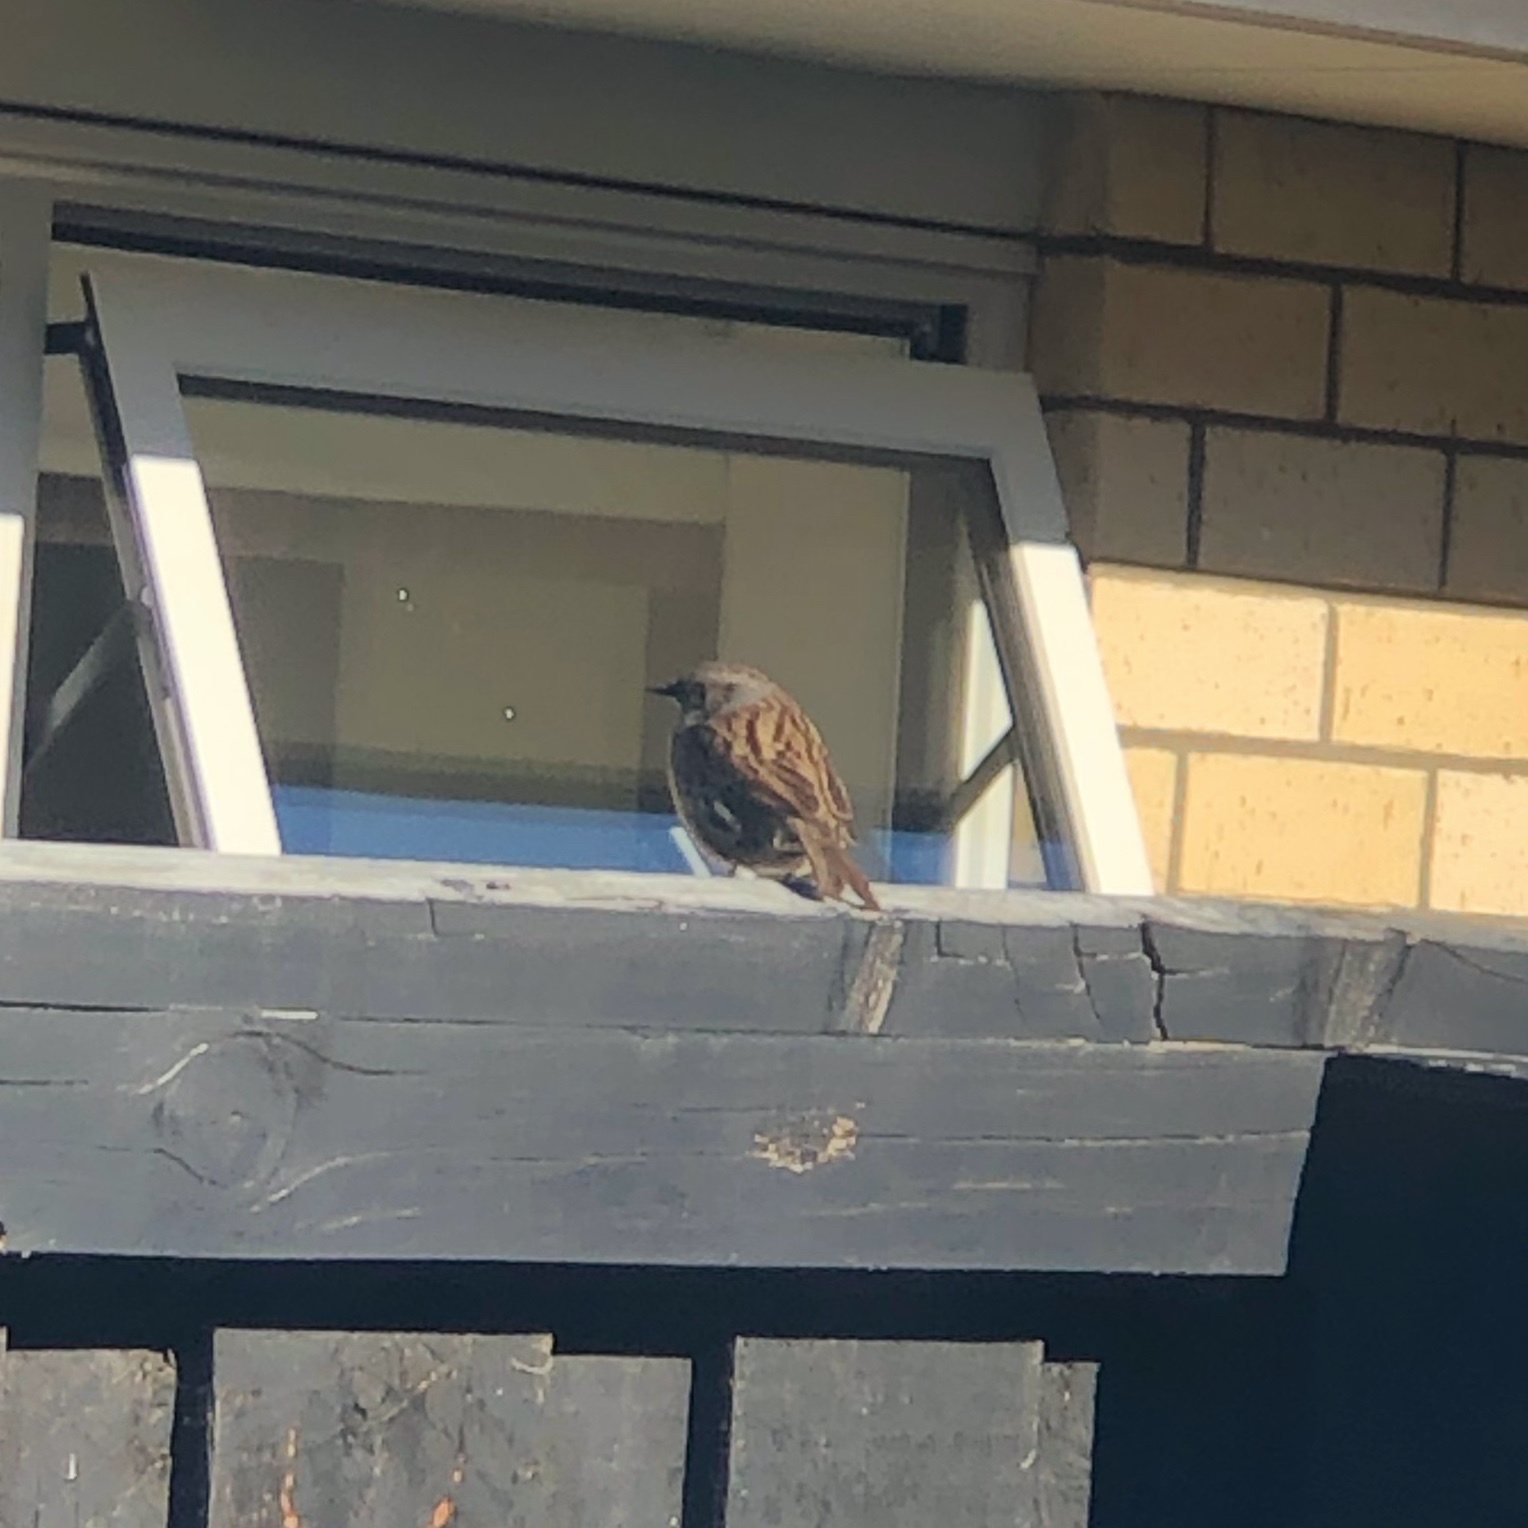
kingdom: Animalia
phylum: Chordata
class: Aves
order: Passeriformes
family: Prunellidae
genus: Prunella
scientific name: Prunella modularis
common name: Dunnock
